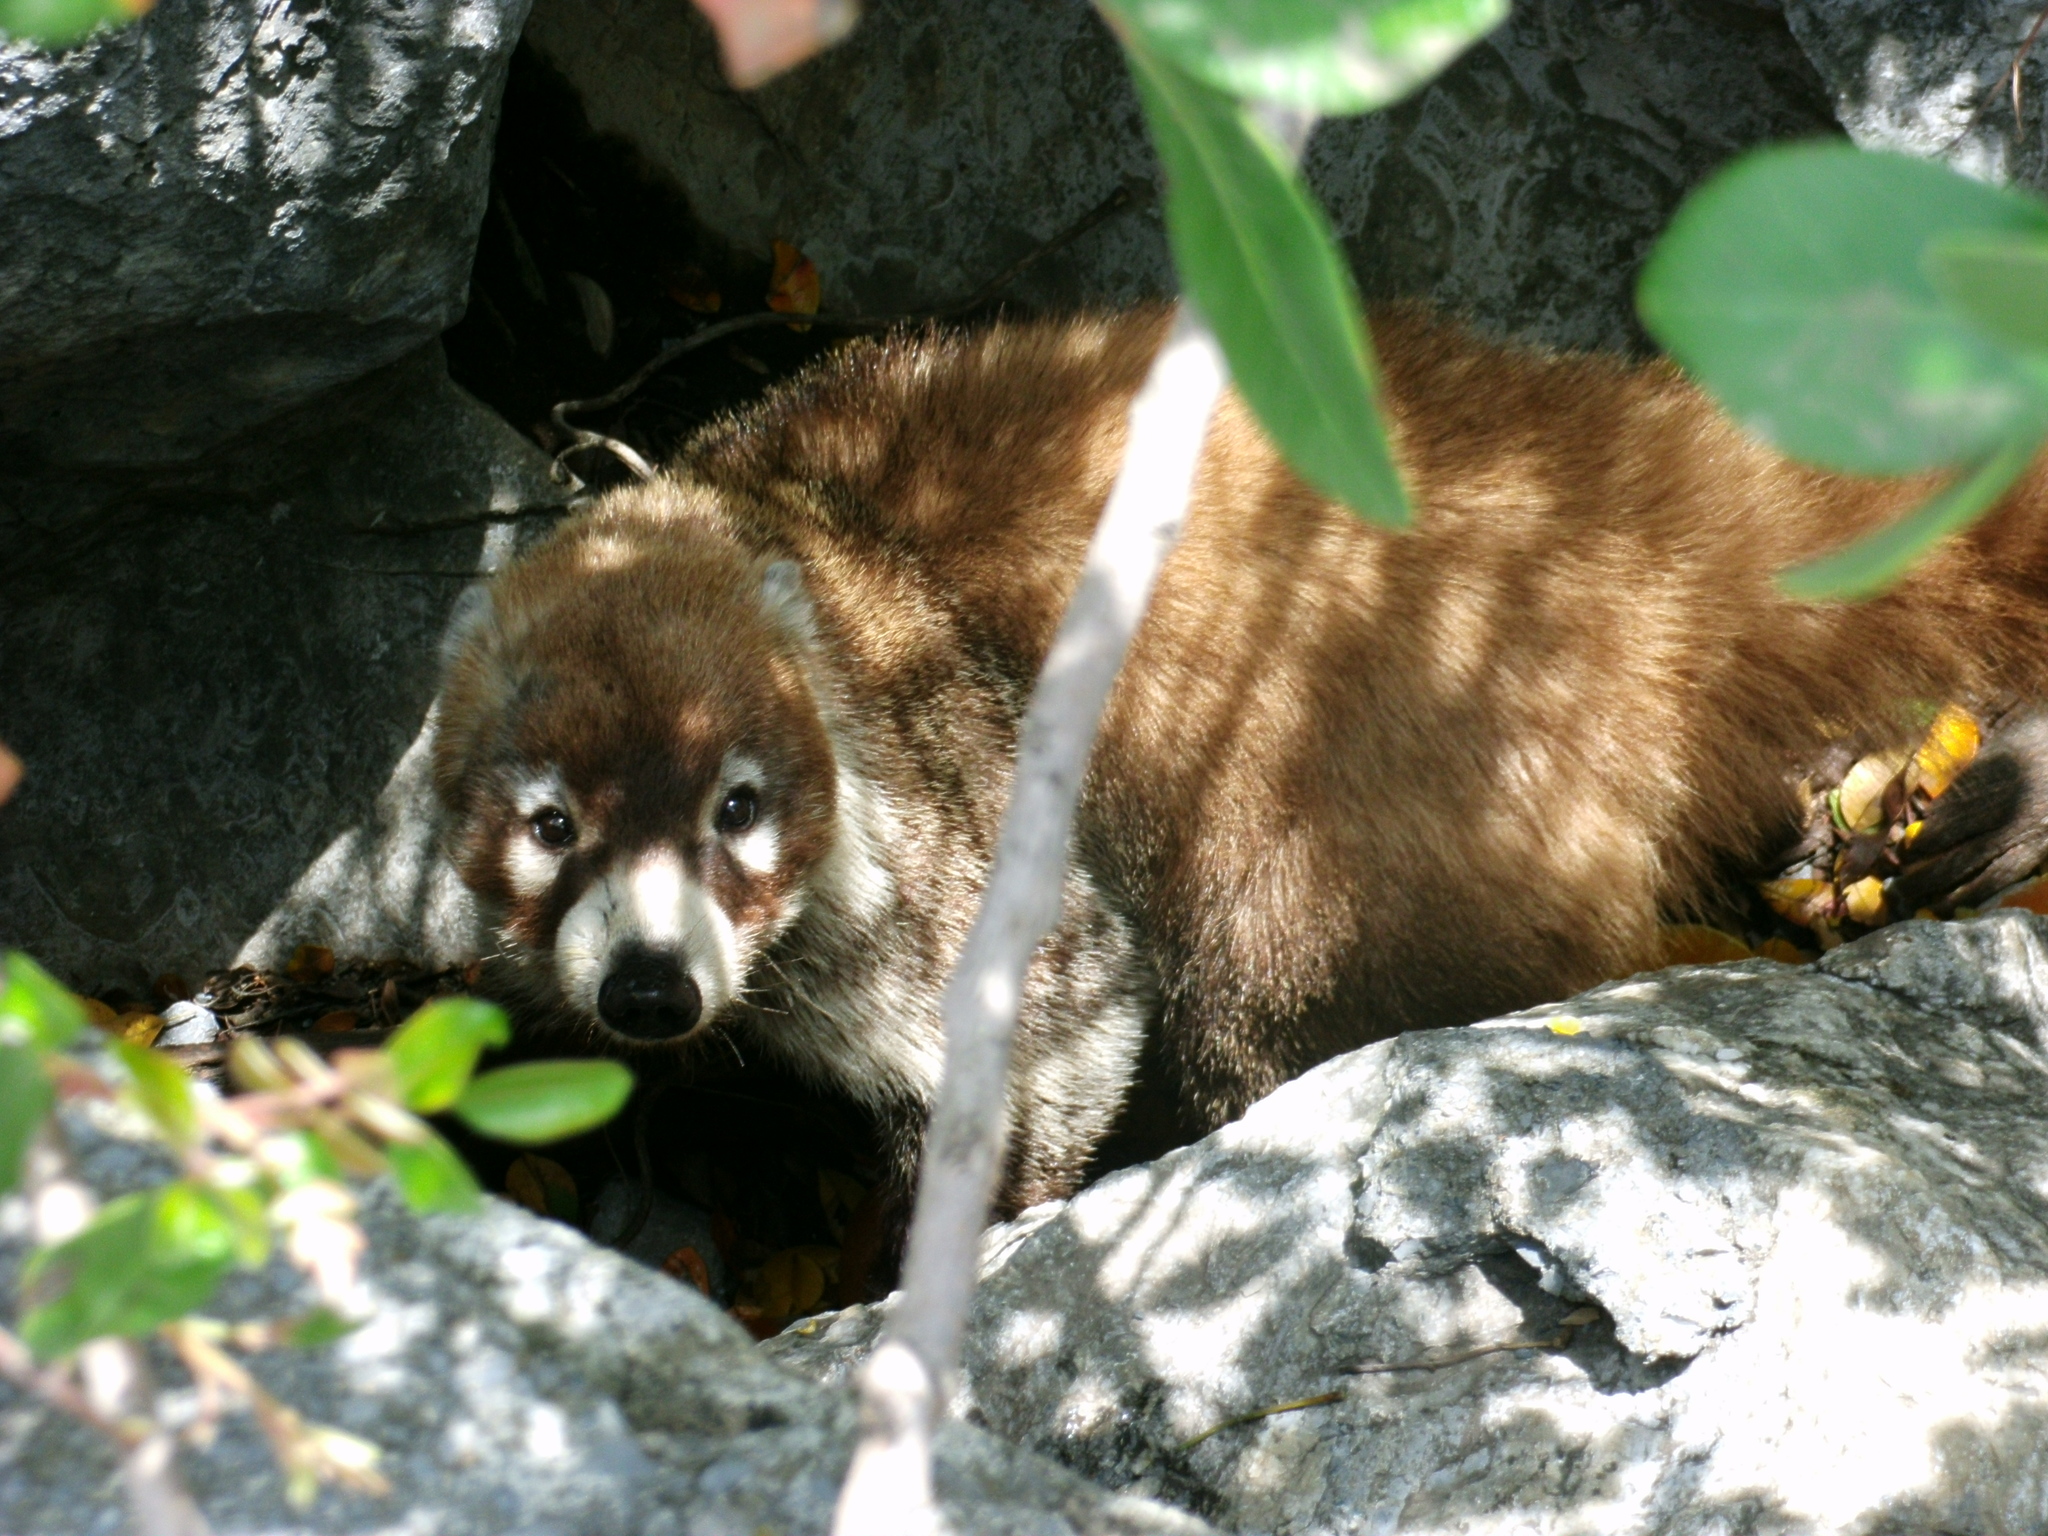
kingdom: Animalia
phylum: Chordata
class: Mammalia
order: Carnivora
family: Procyonidae
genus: Nasua
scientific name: Nasua narica
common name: White-nosed coati
